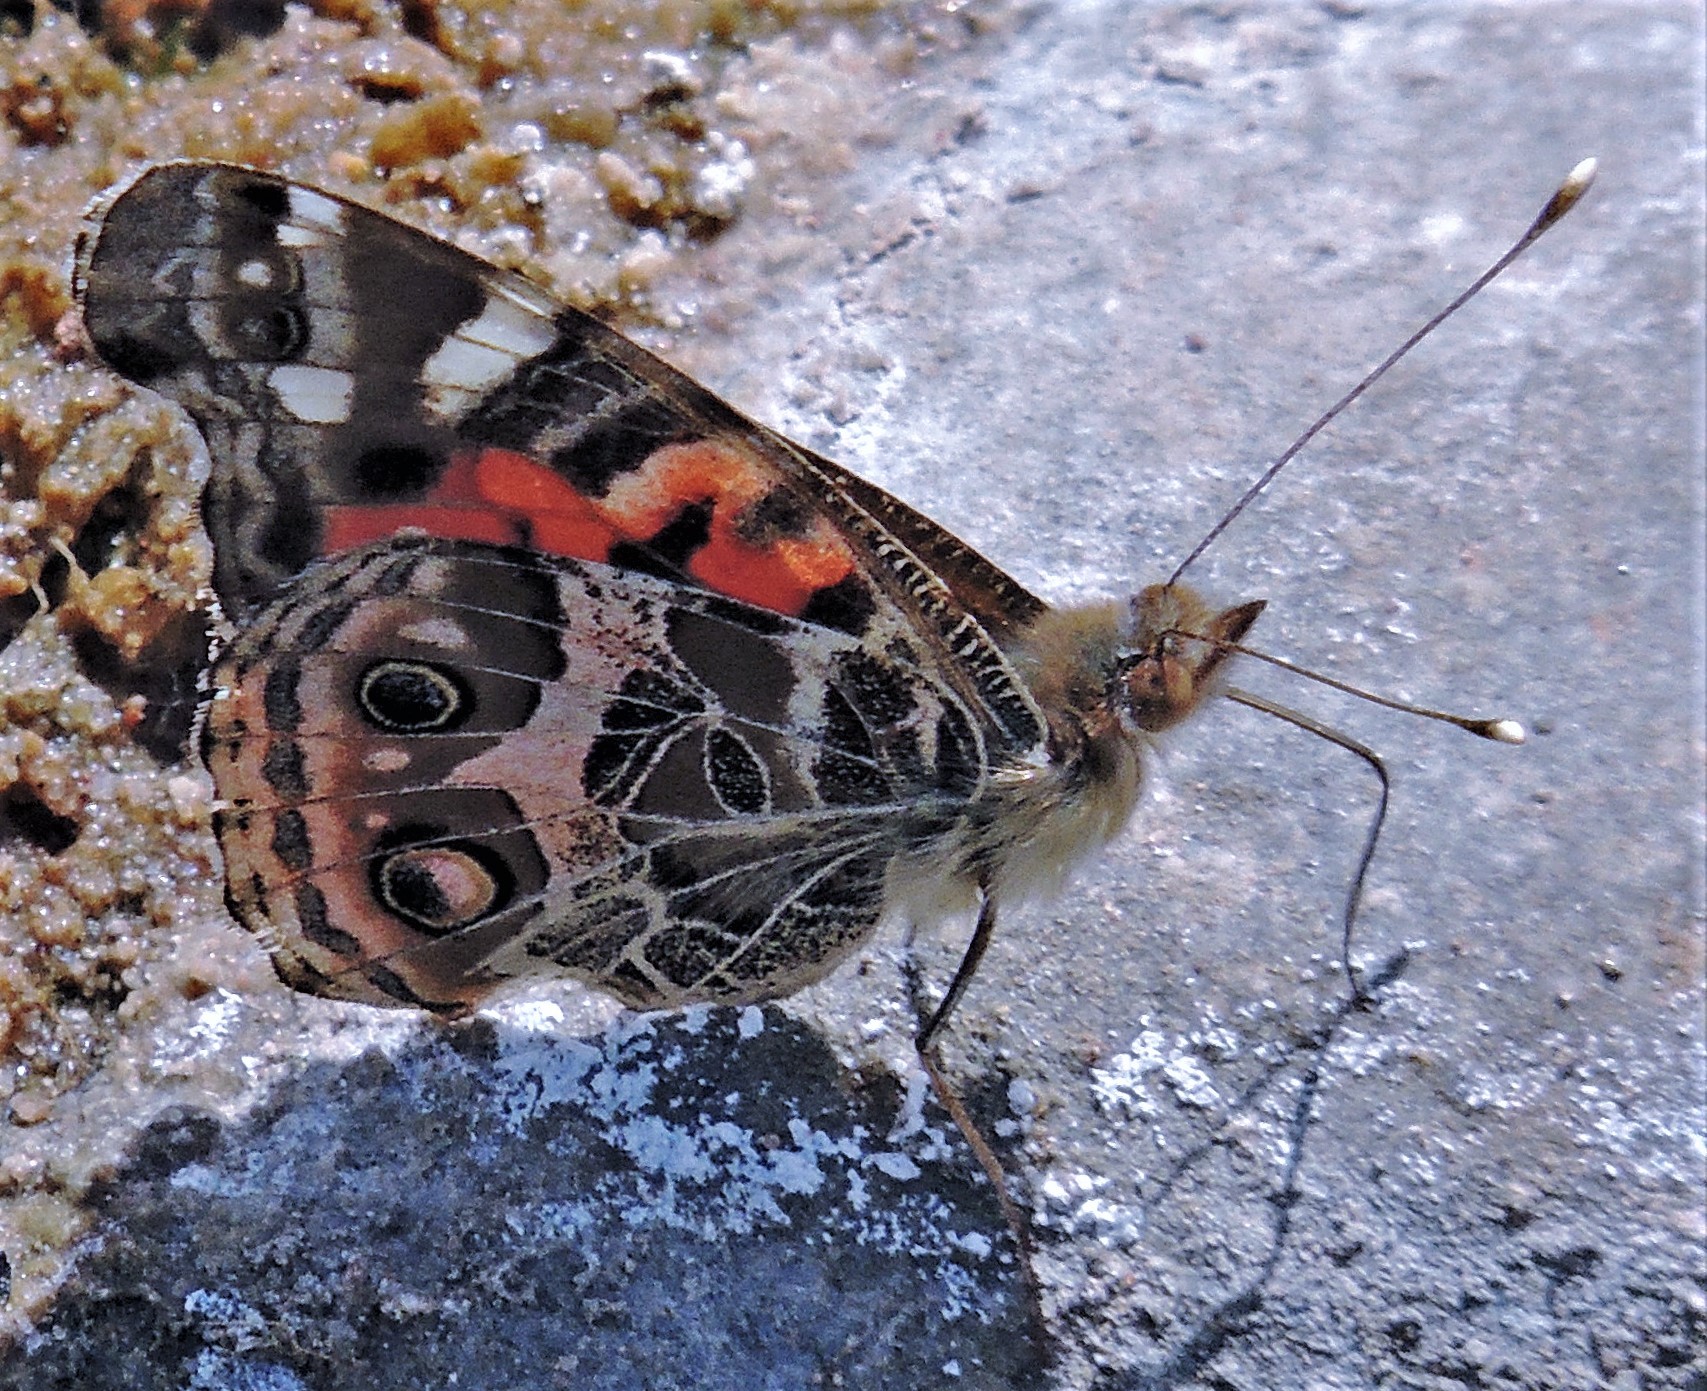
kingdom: Animalia
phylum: Arthropoda
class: Insecta
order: Lepidoptera
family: Nymphalidae
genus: Vanessa
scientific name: Vanessa braziliensis
